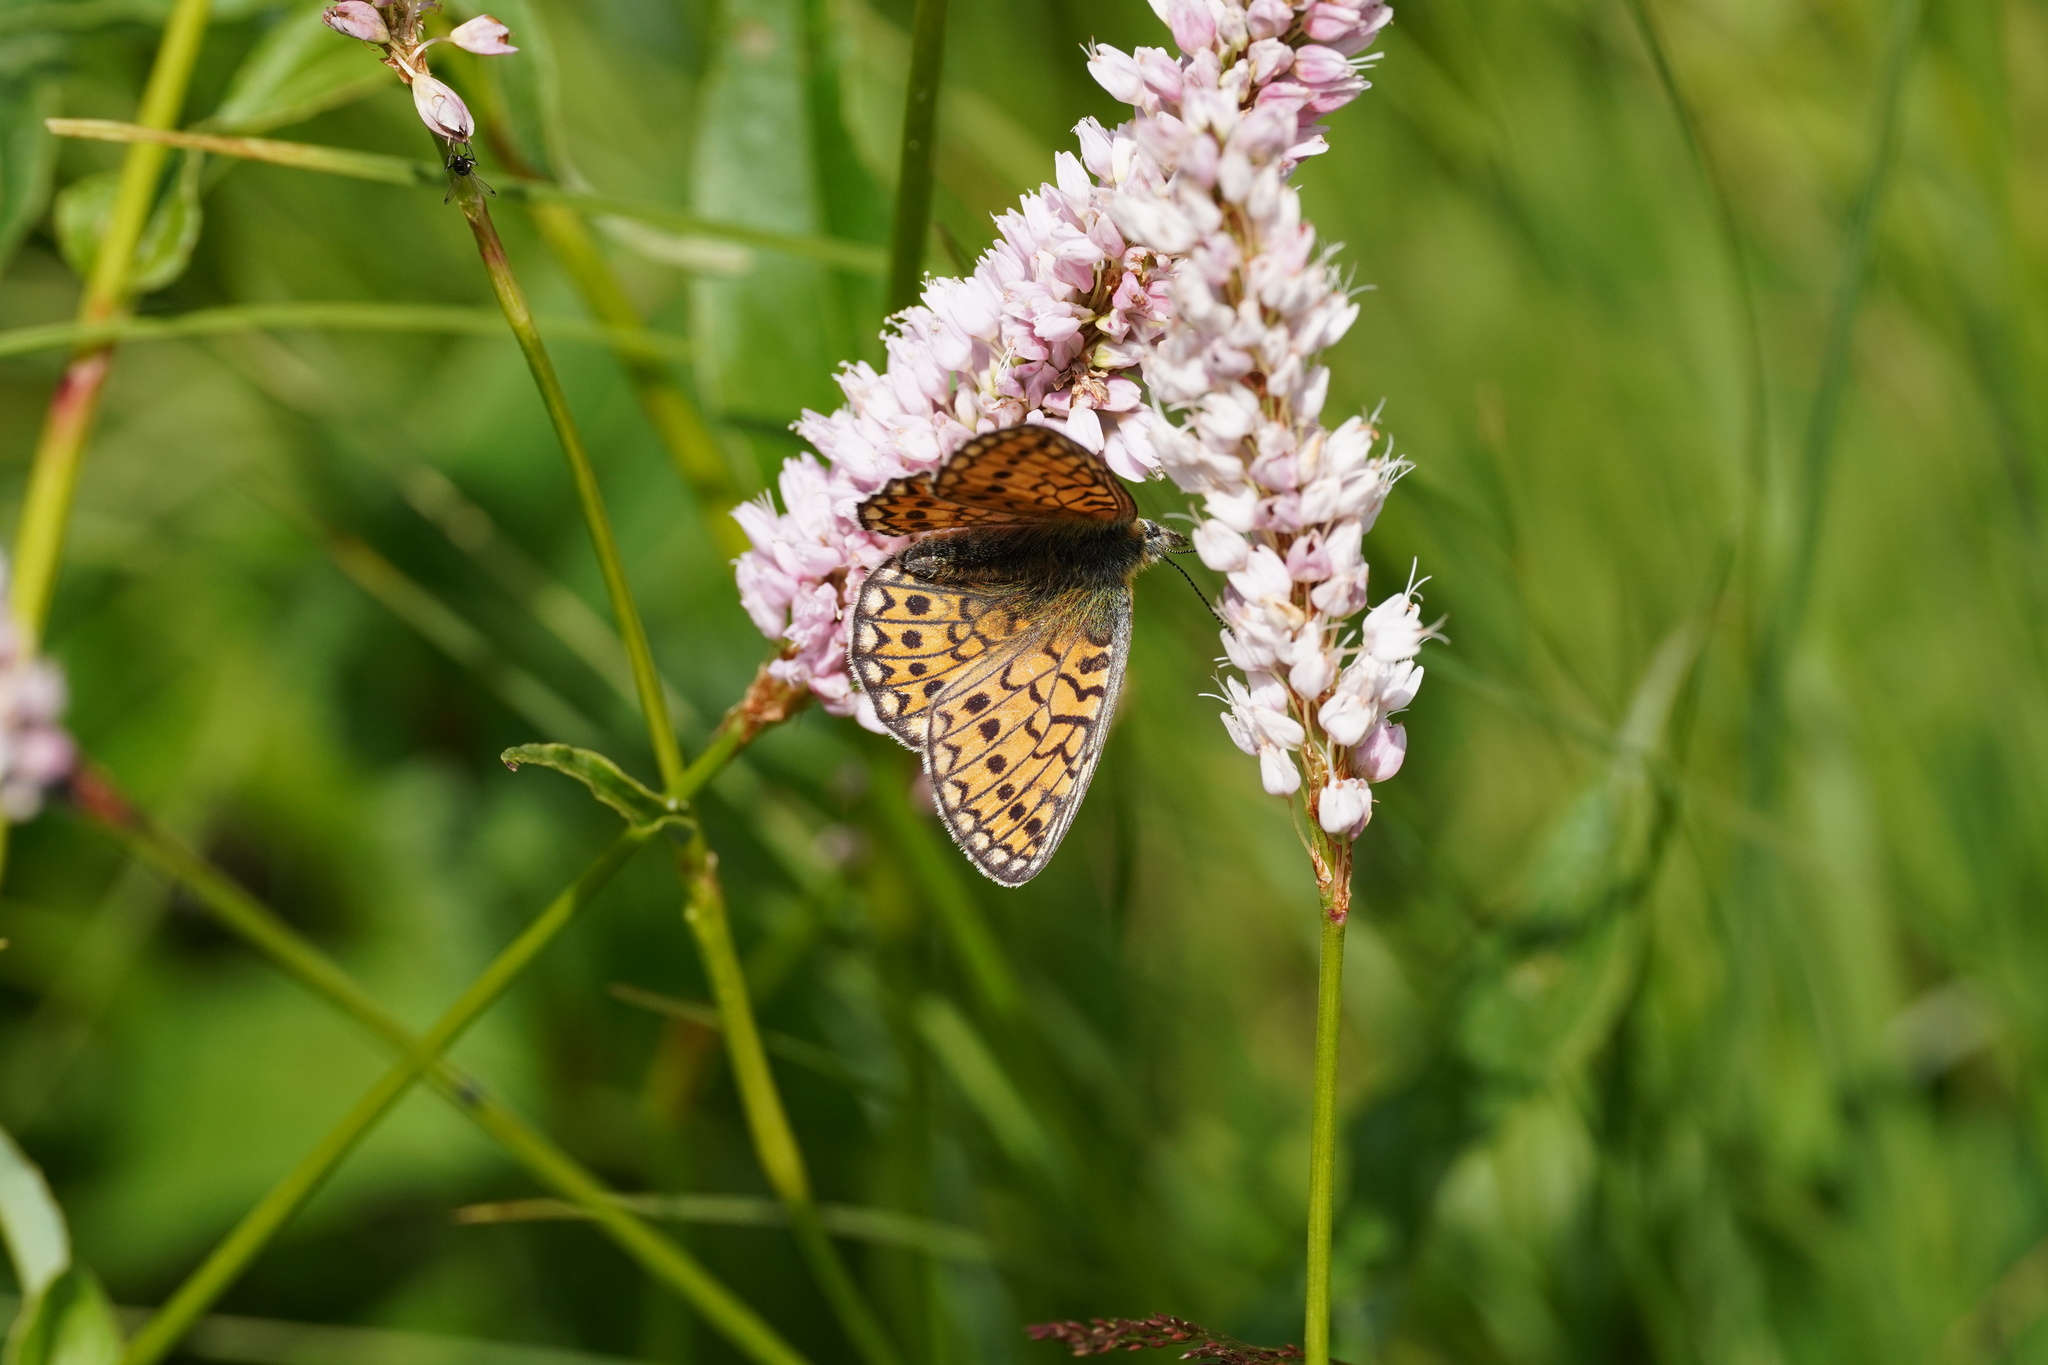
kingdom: Animalia
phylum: Arthropoda
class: Insecta
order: Lepidoptera
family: Nymphalidae
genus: Boloria
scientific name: Boloria eunomia
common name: Bog fritillary
